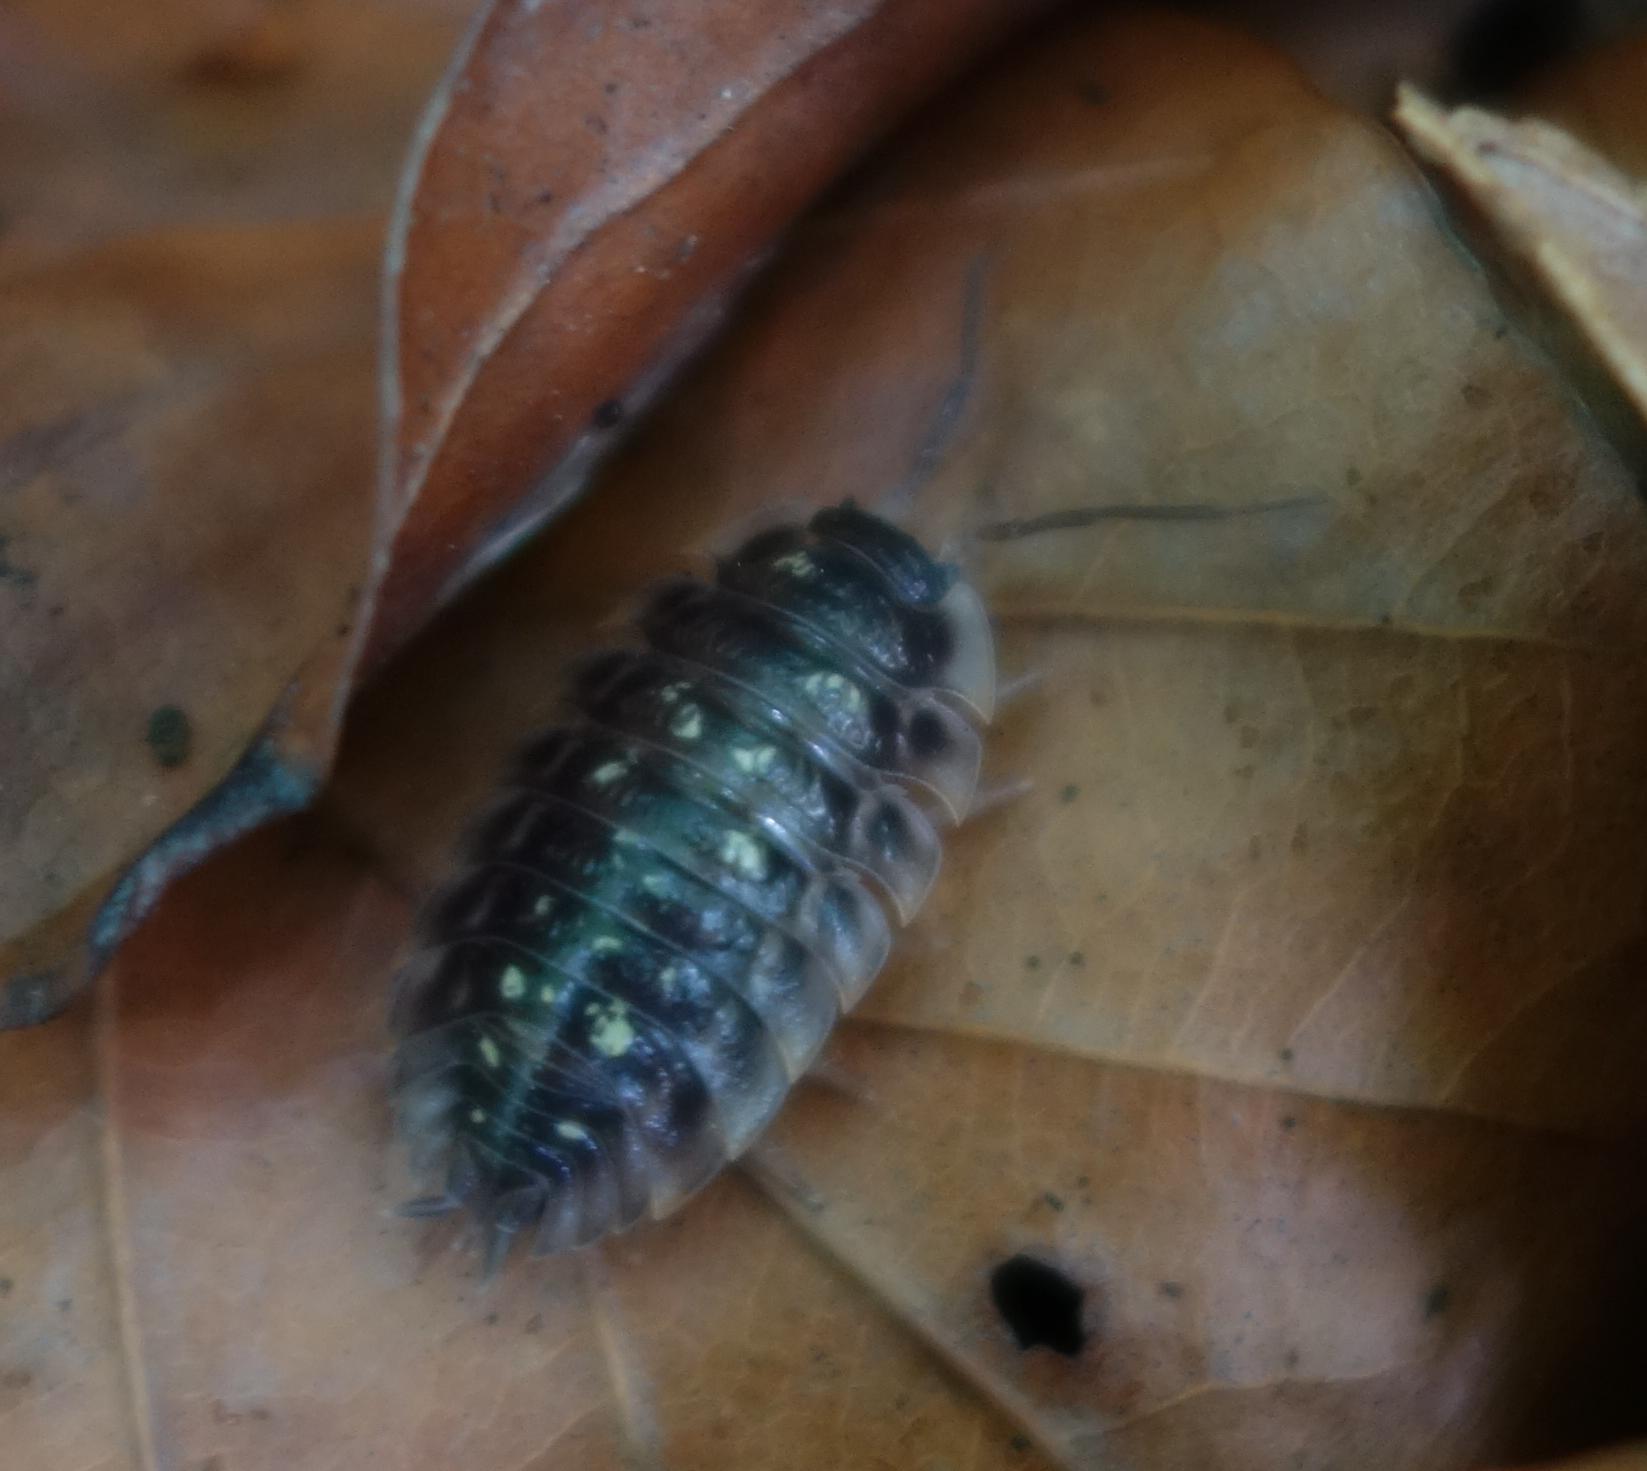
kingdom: Animalia
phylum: Arthropoda
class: Malacostraca
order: Isopoda
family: Oniscidae
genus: Oniscus
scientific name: Oniscus asellus
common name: Common shiny woodlouse
